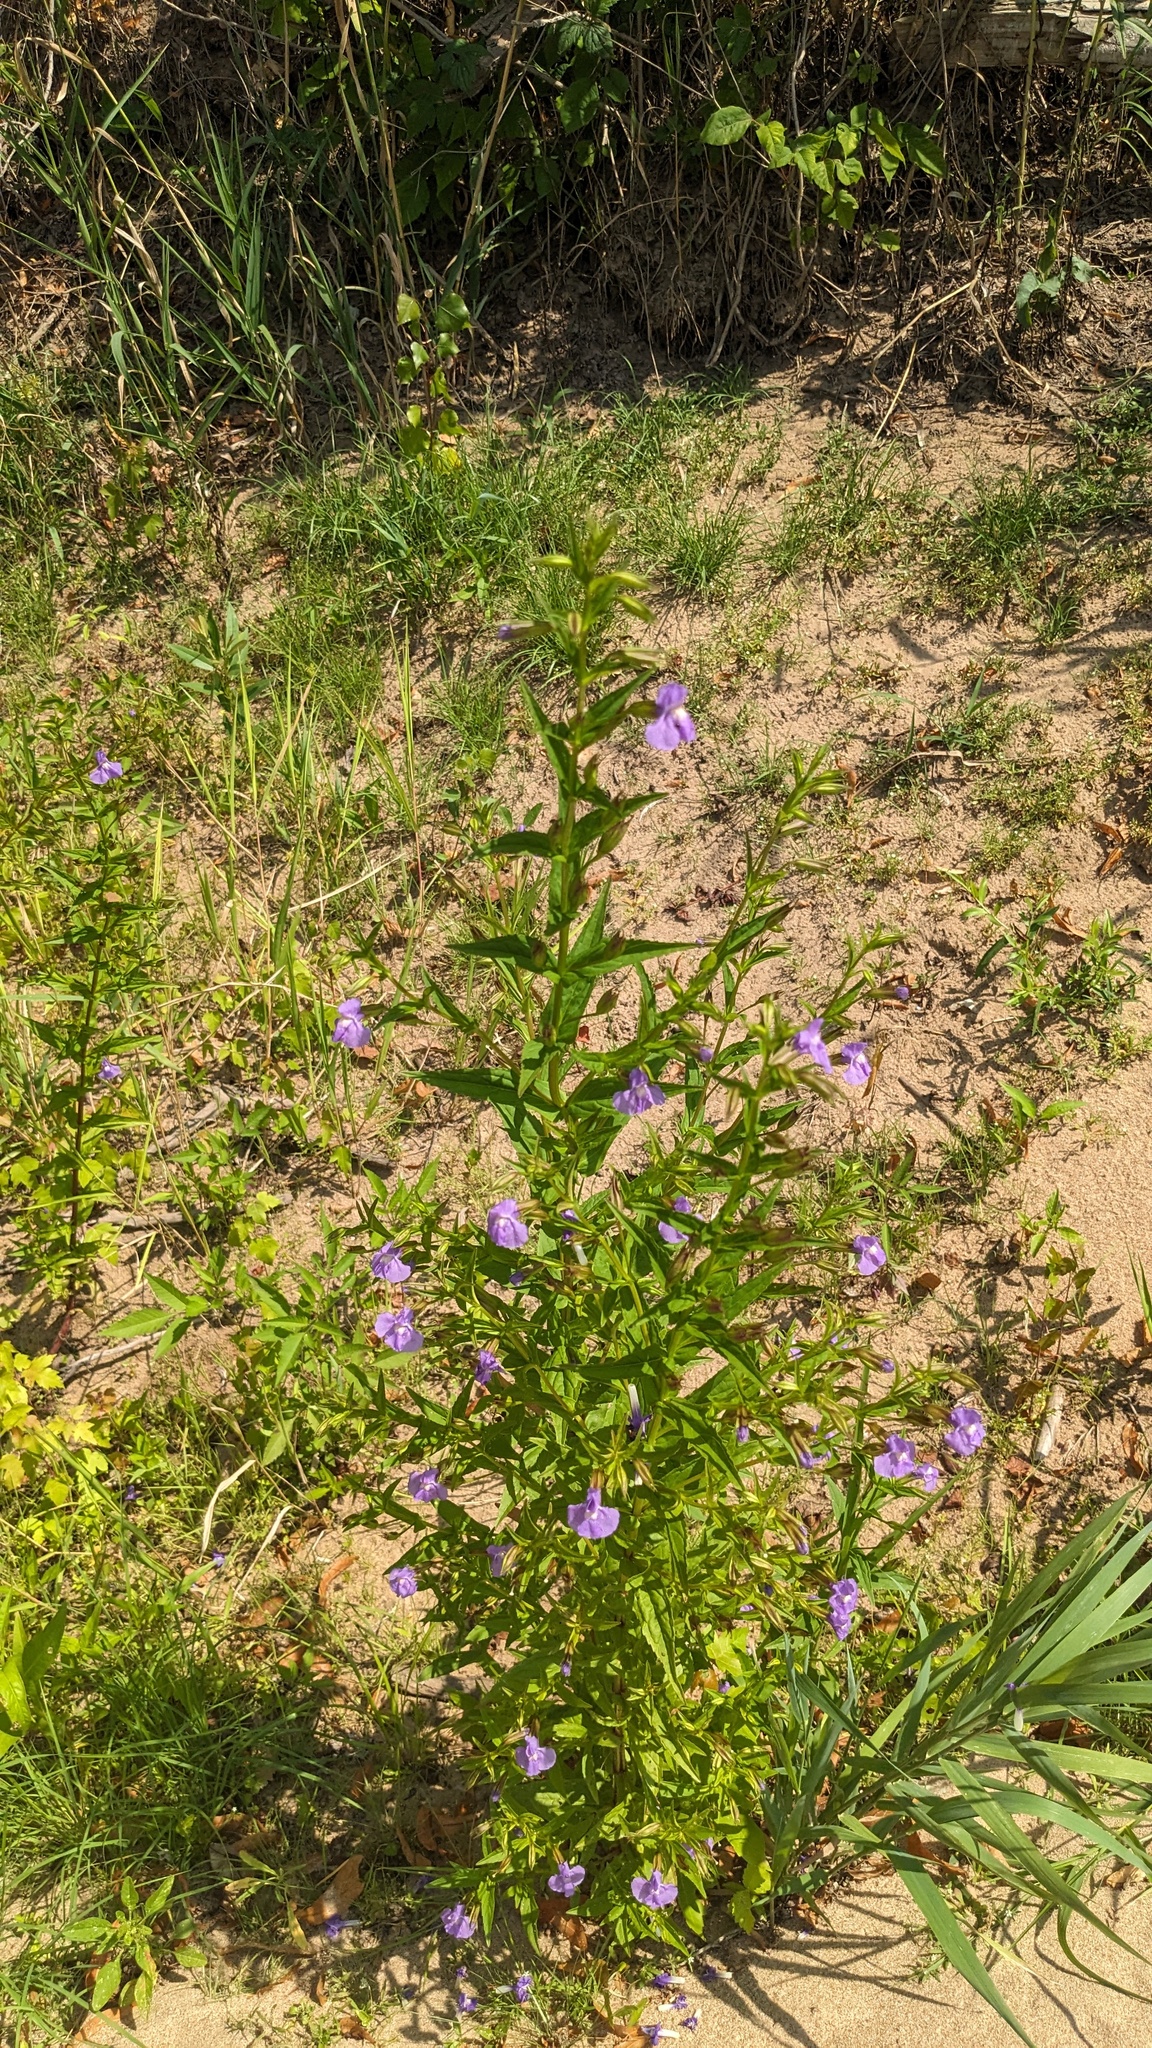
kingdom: Plantae
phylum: Tracheophyta
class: Magnoliopsida
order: Lamiales
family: Phrymaceae
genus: Mimulus
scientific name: Mimulus ringens
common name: Allegheny monkeyflower
